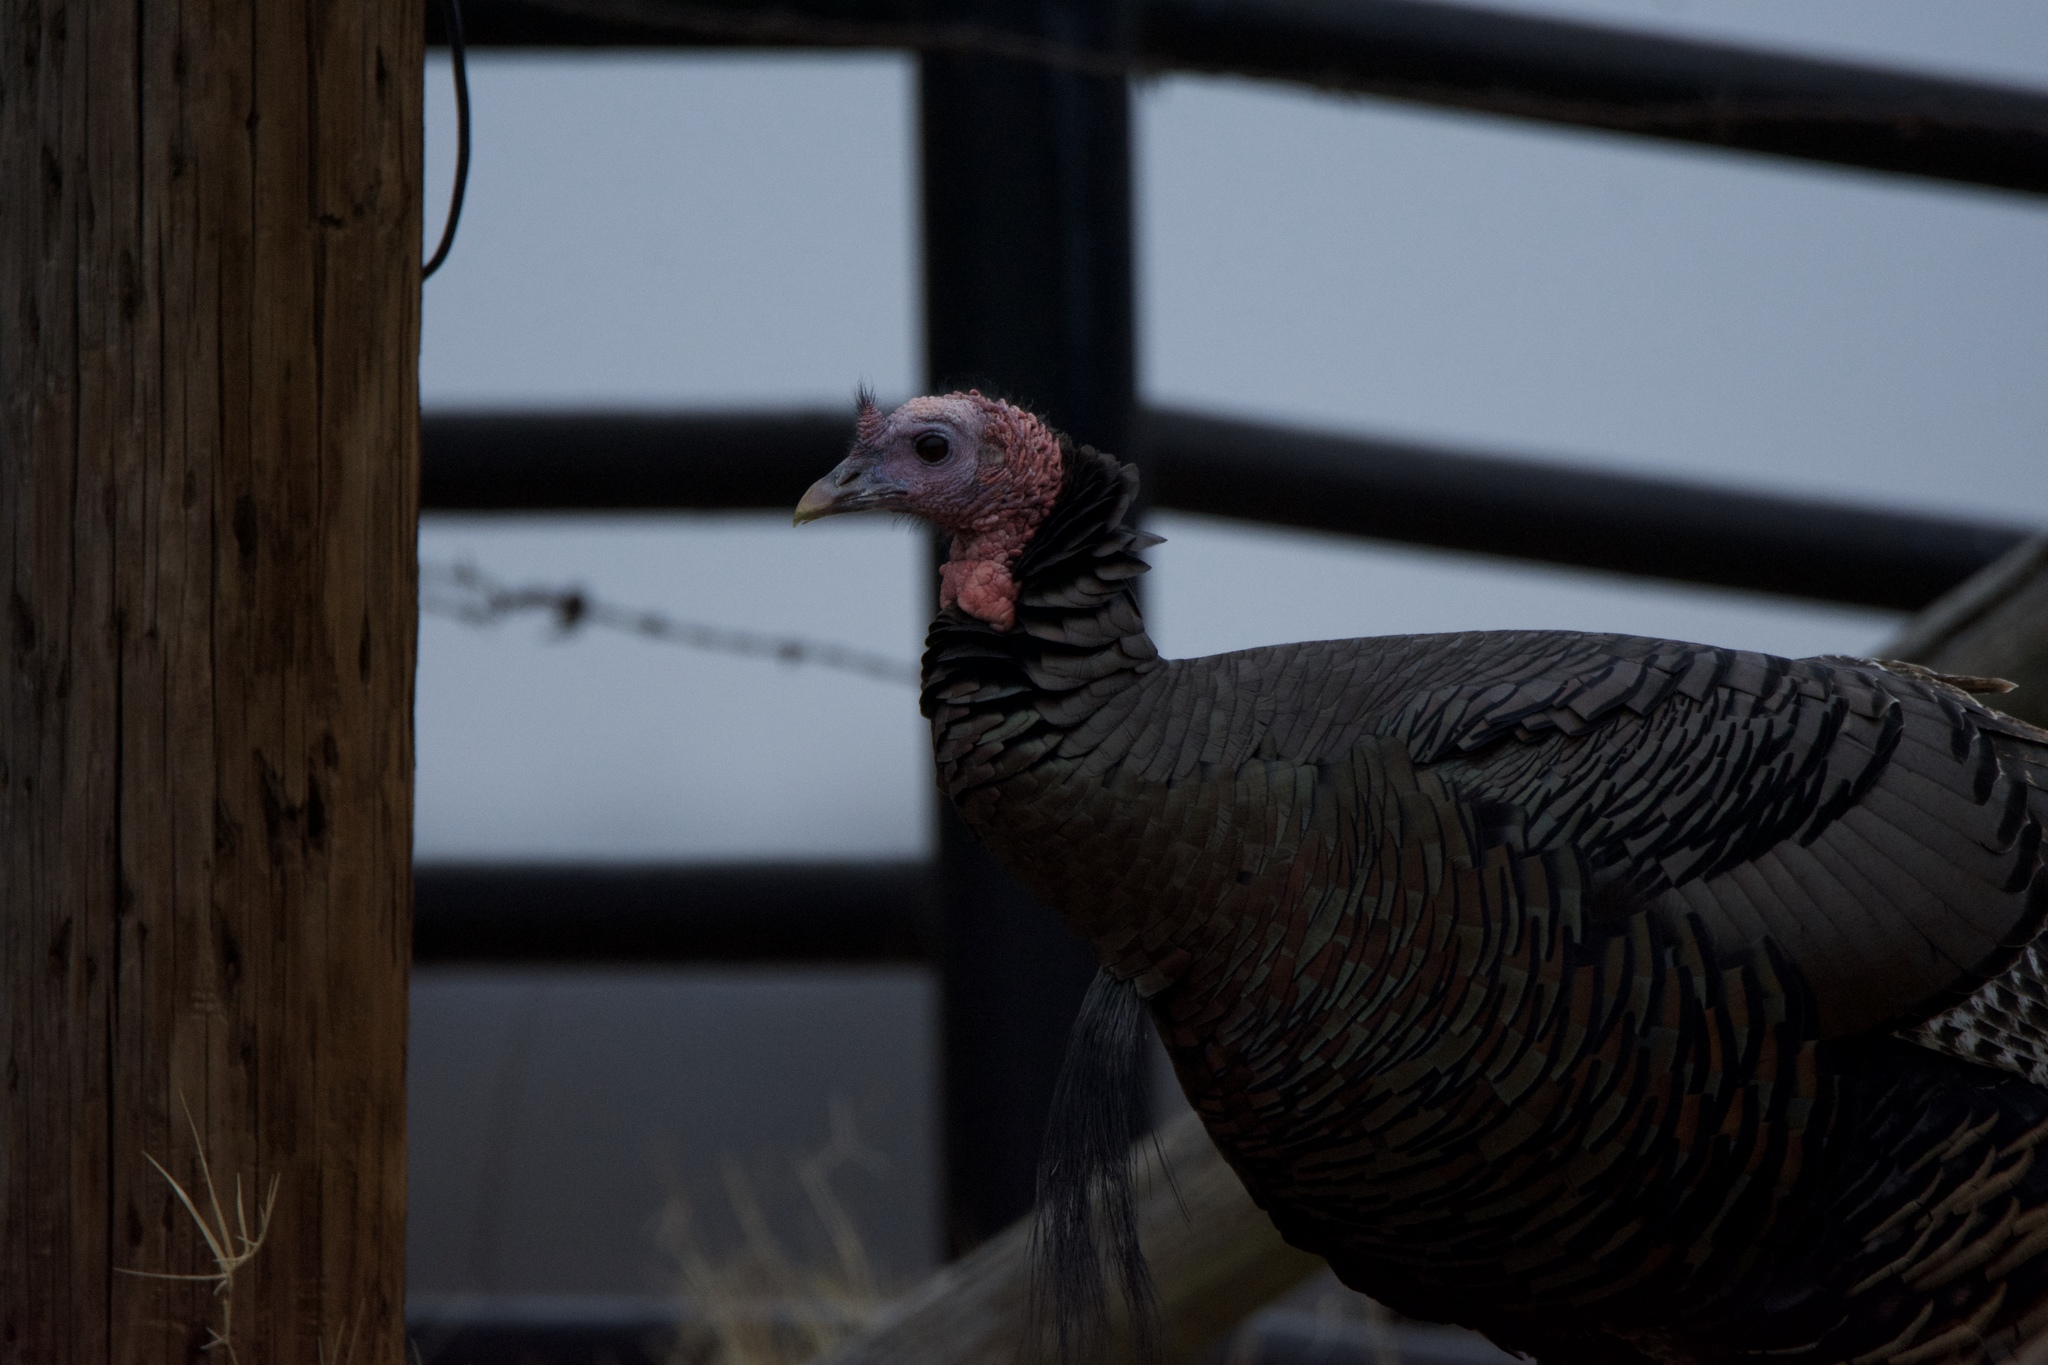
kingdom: Animalia
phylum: Chordata
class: Aves
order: Galliformes
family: Phasianidae
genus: Meleagris
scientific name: Meleagris gallopavo
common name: Wild turkey
